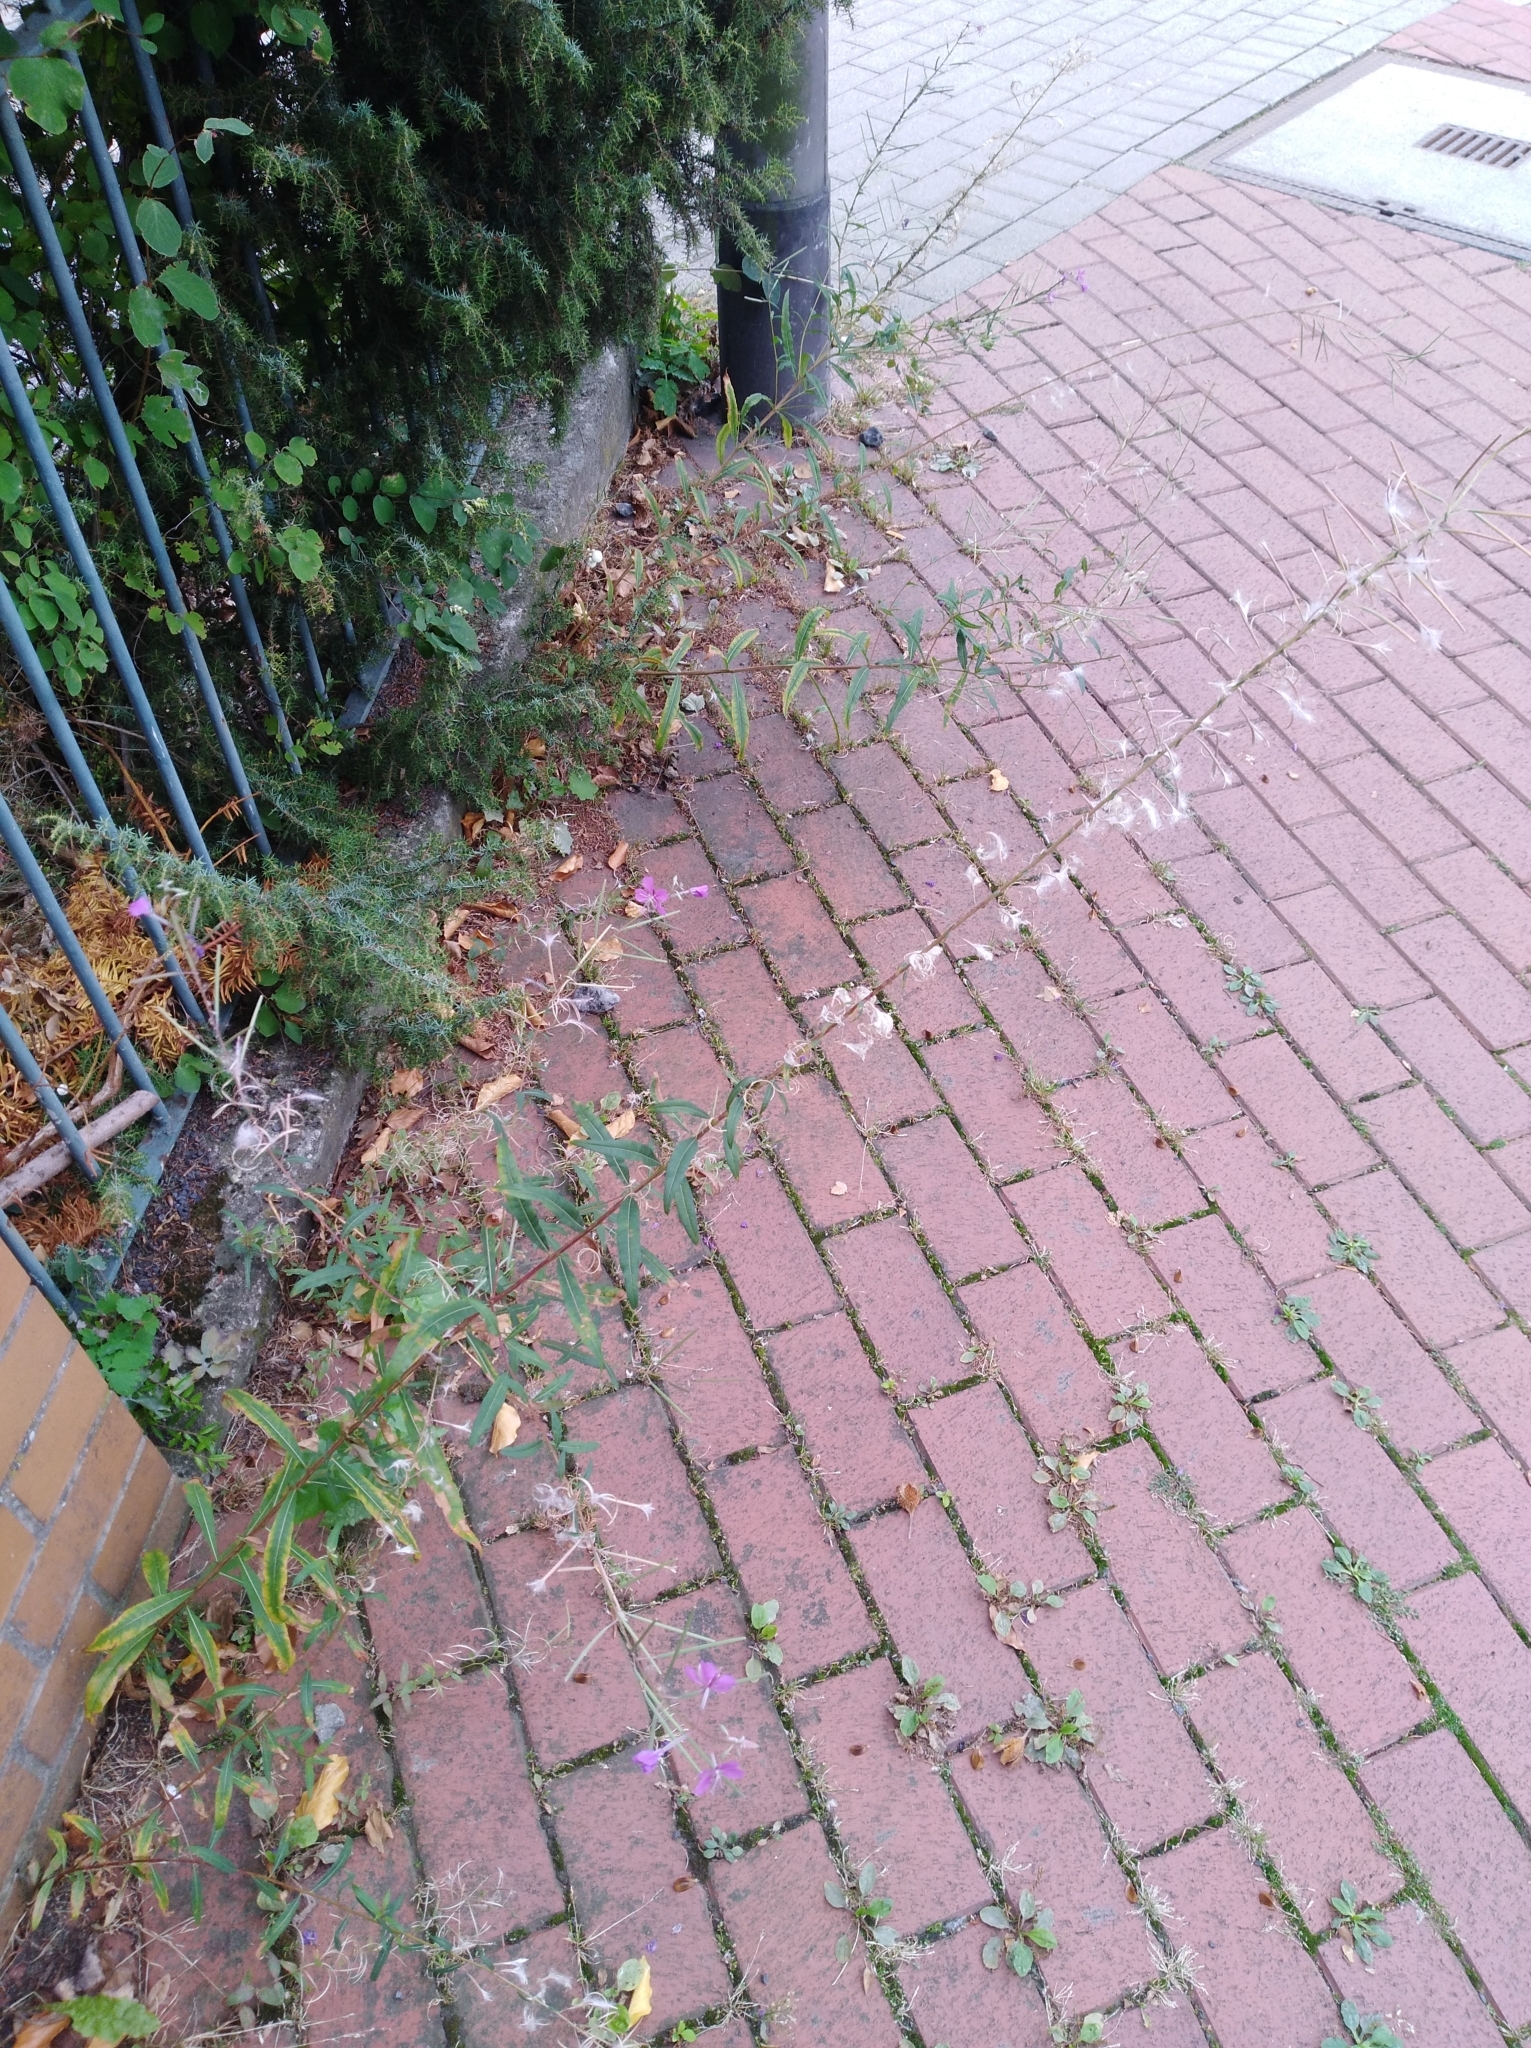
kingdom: Plantae
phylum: Tracheophyta
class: Magnoliopsida
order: Myrtales
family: Onagraceae
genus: Chamaenerion
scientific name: Chamaenerion angustifolium
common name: Fireweed
